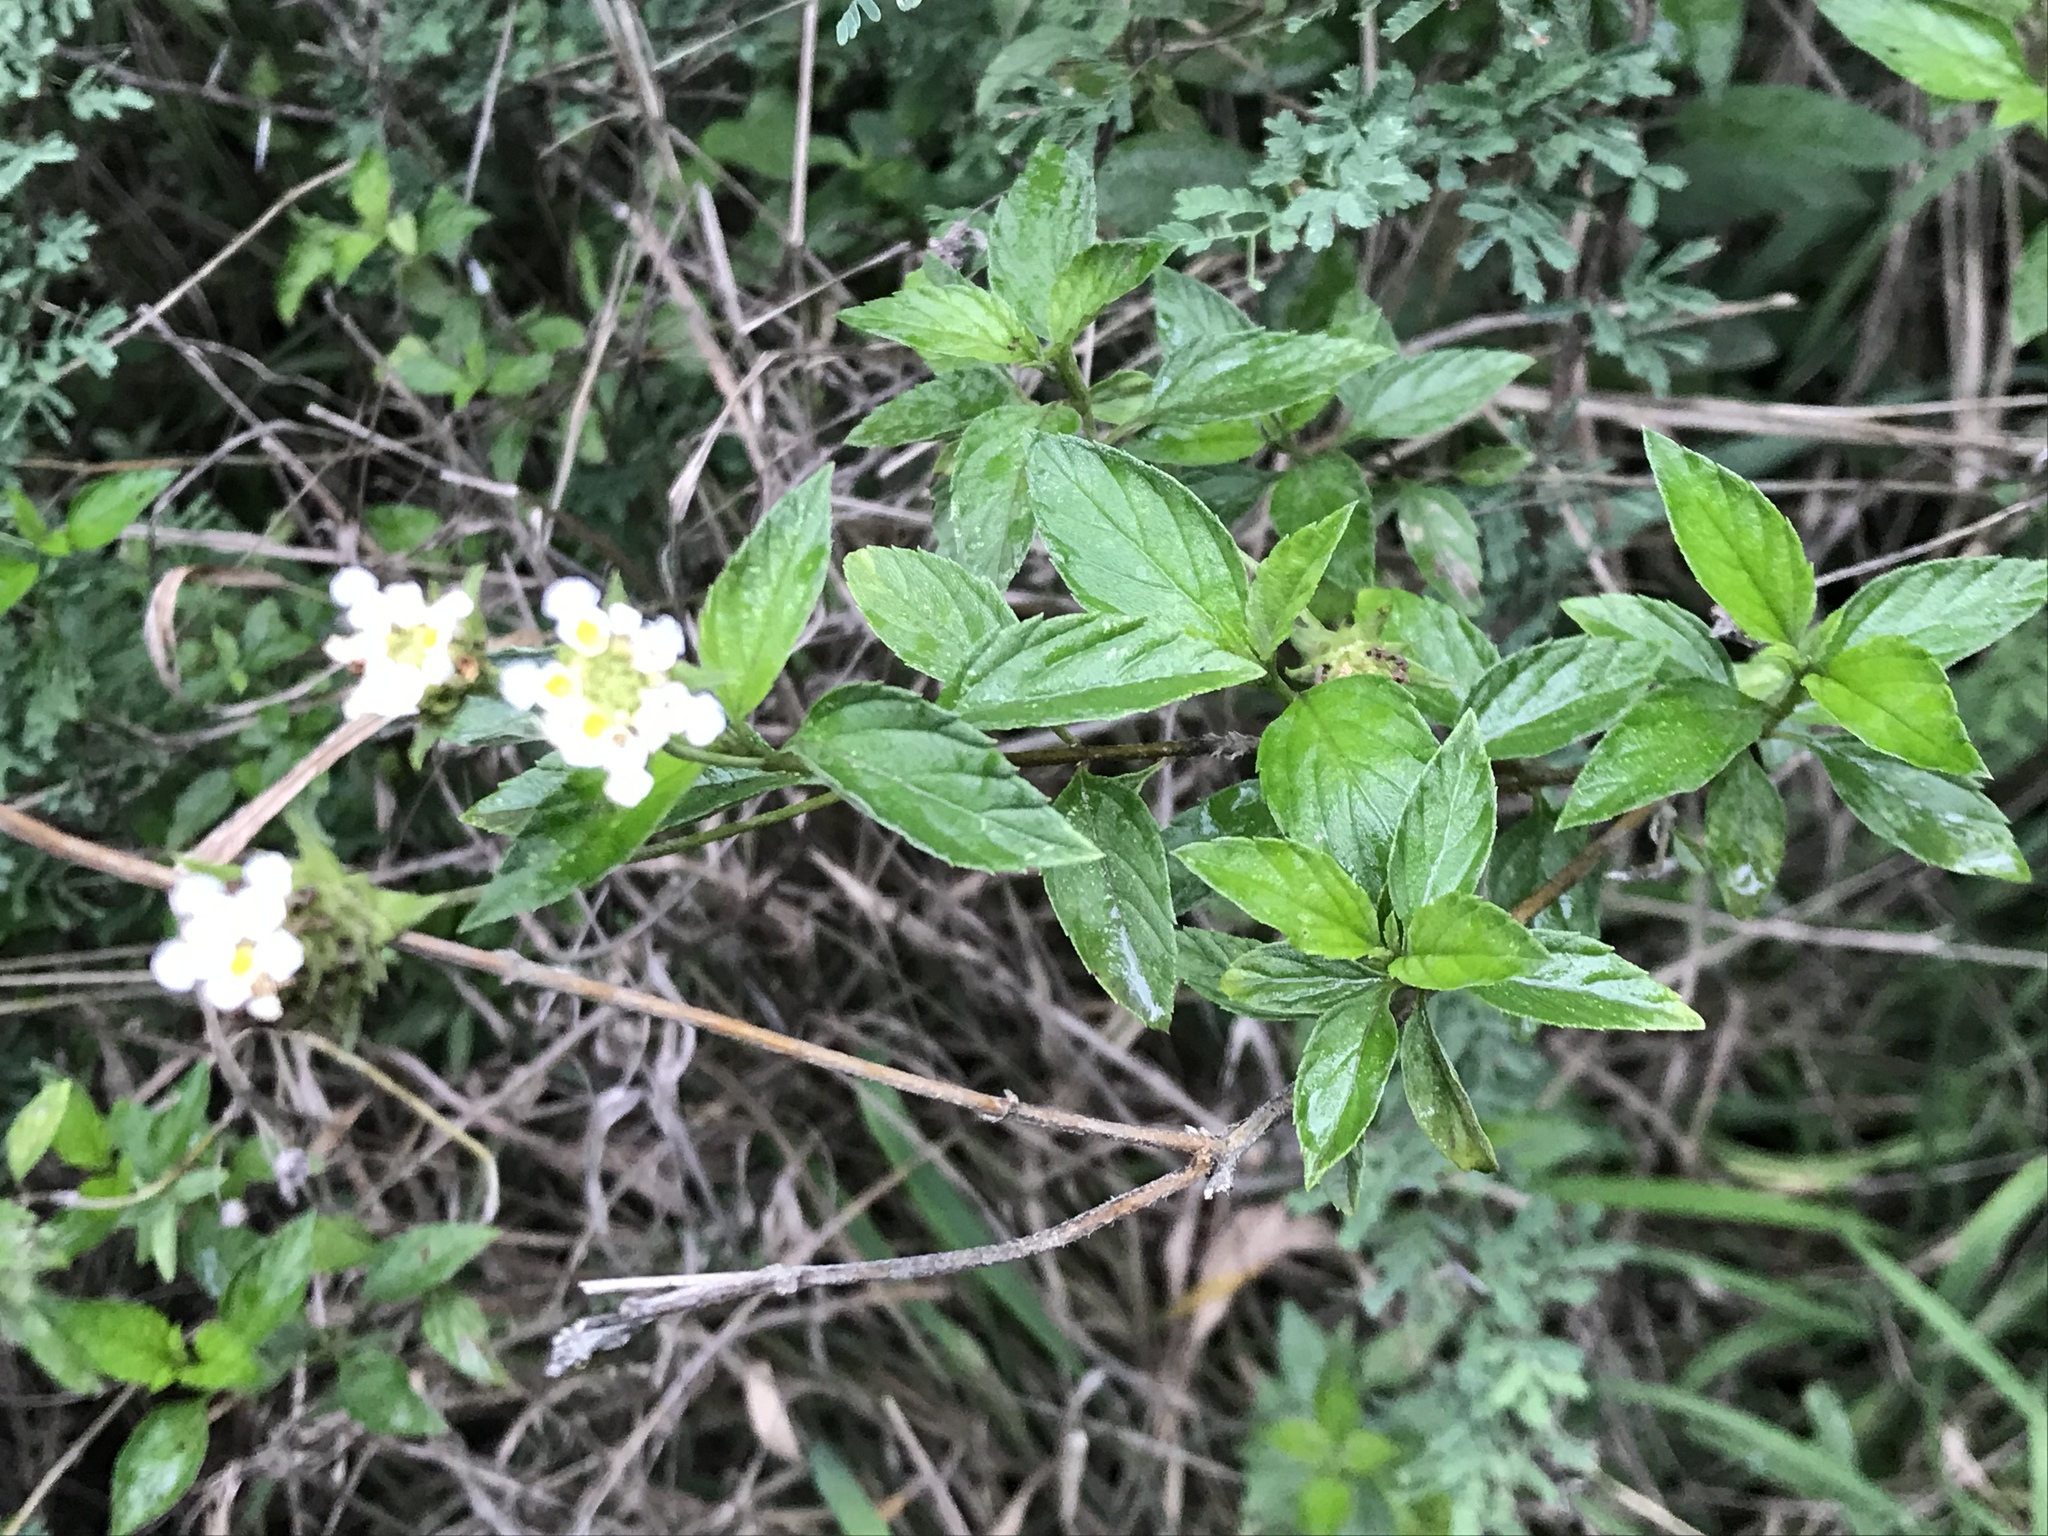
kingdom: Plantae
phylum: Tracheophyta
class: Magnoliopsida
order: Lamiales
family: Verbenaceae
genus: Lantana
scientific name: Lantana achyranthifolia
